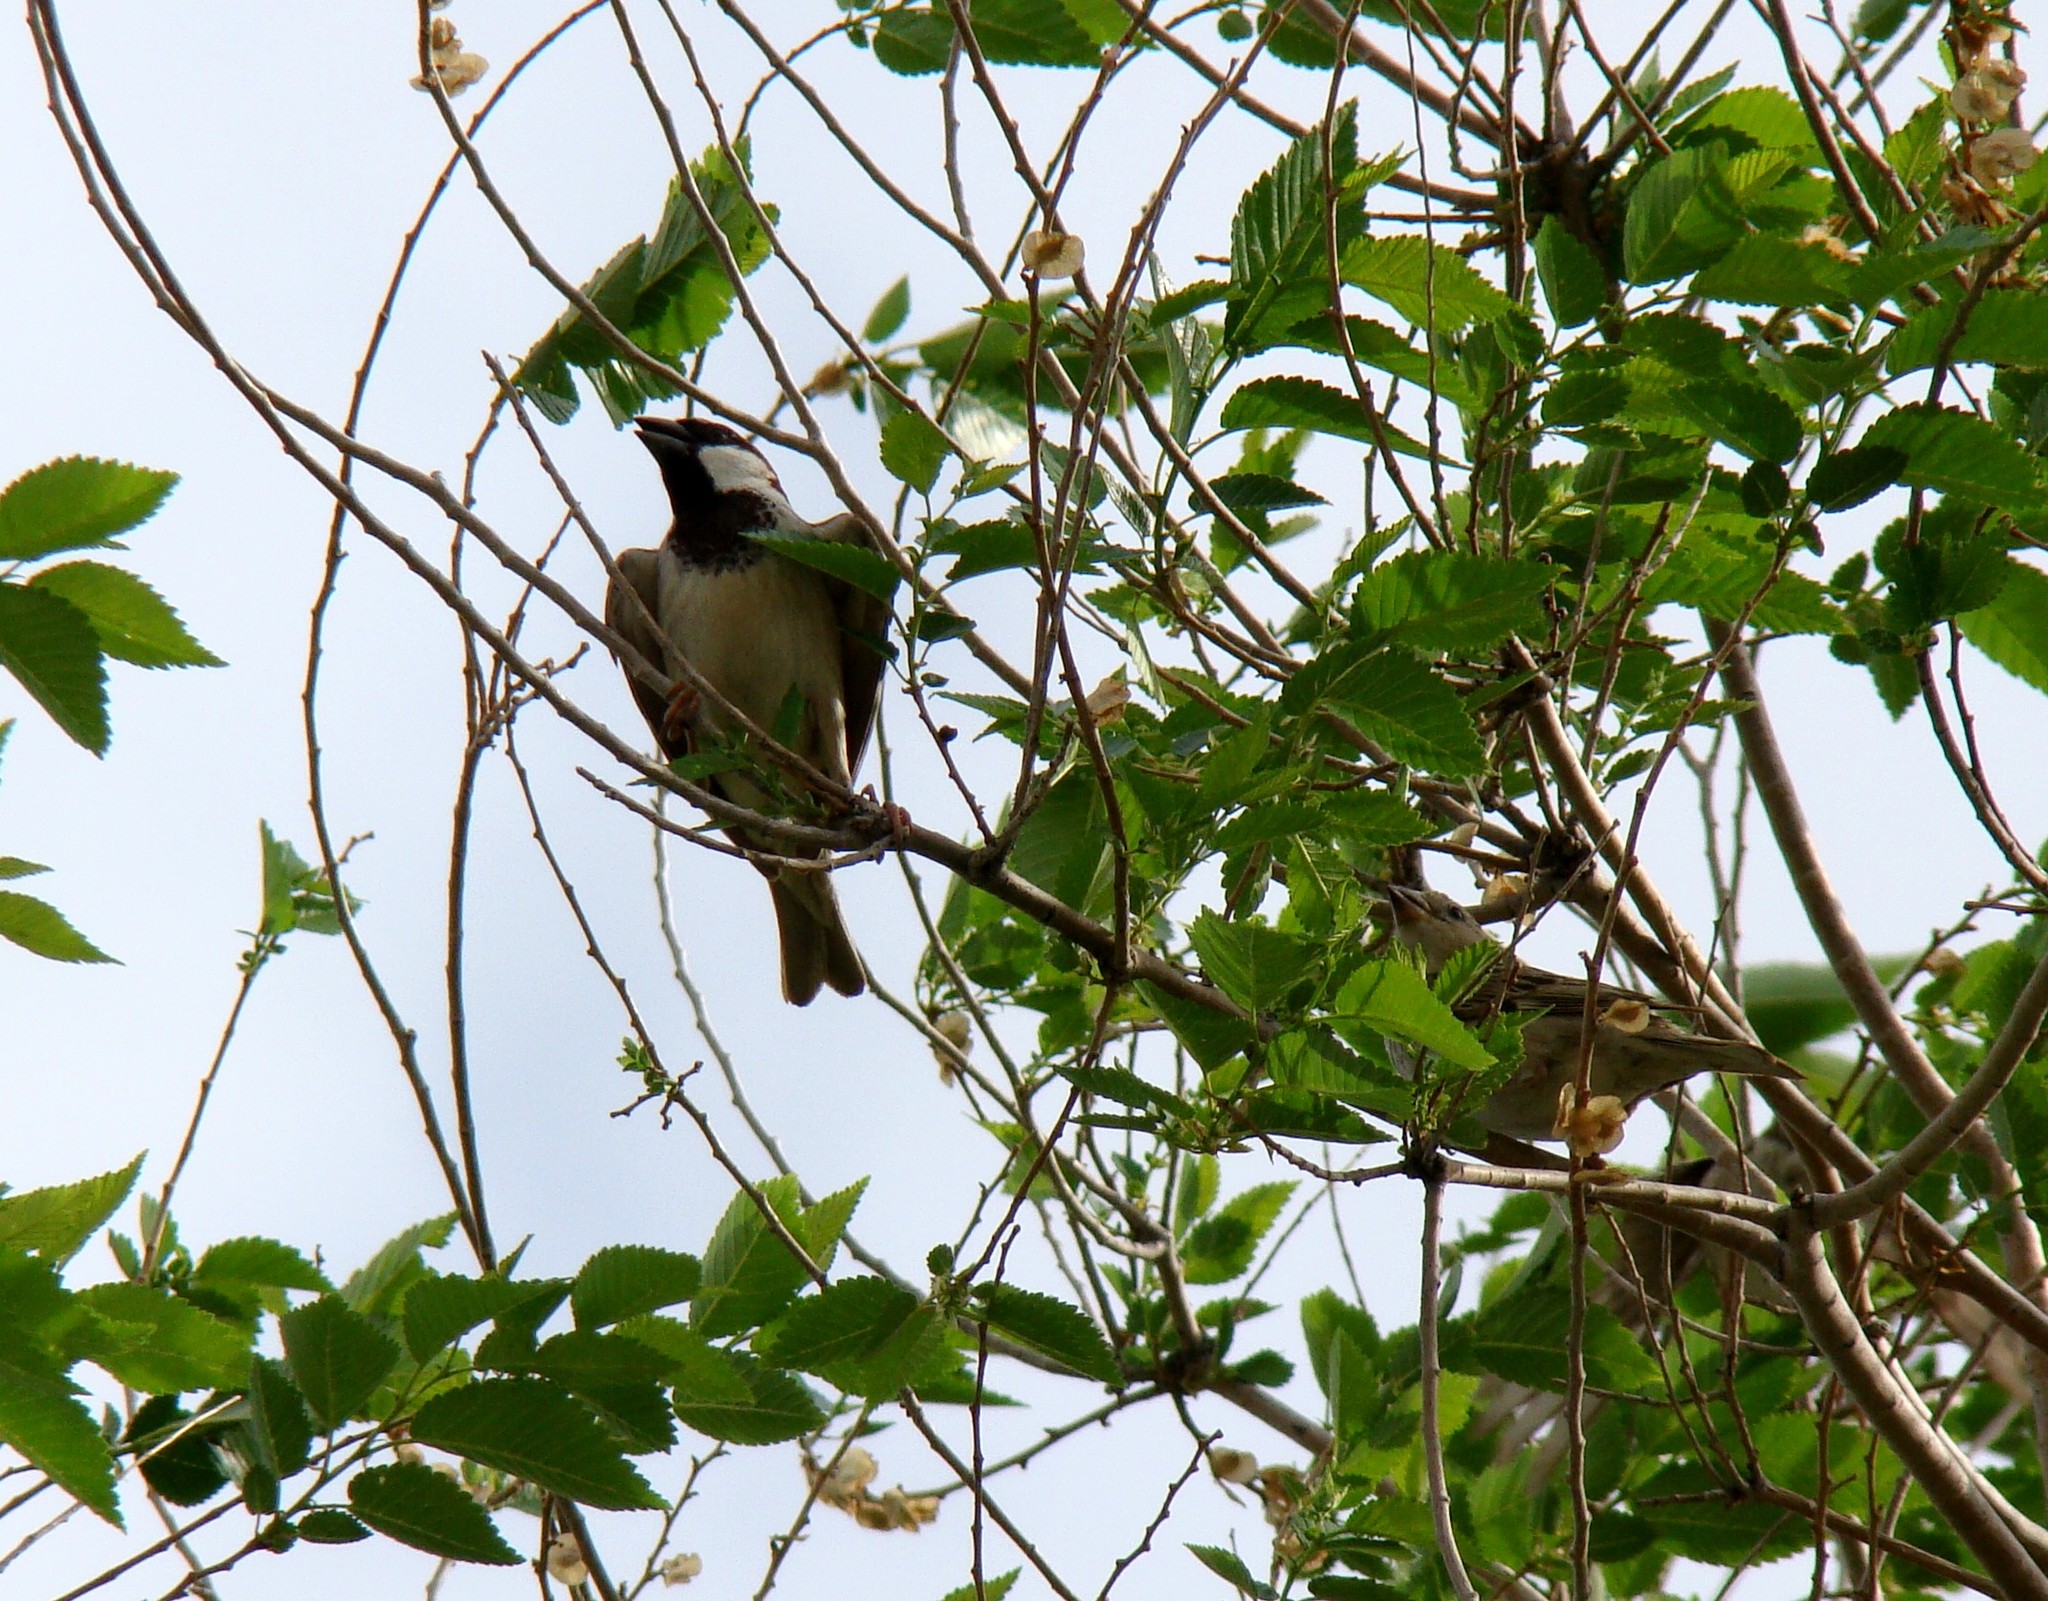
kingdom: Animalia
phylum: Chordata
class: Aves
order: Passeriformes
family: Passeridae
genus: Passer
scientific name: Passer domesticus
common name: House sparrow
